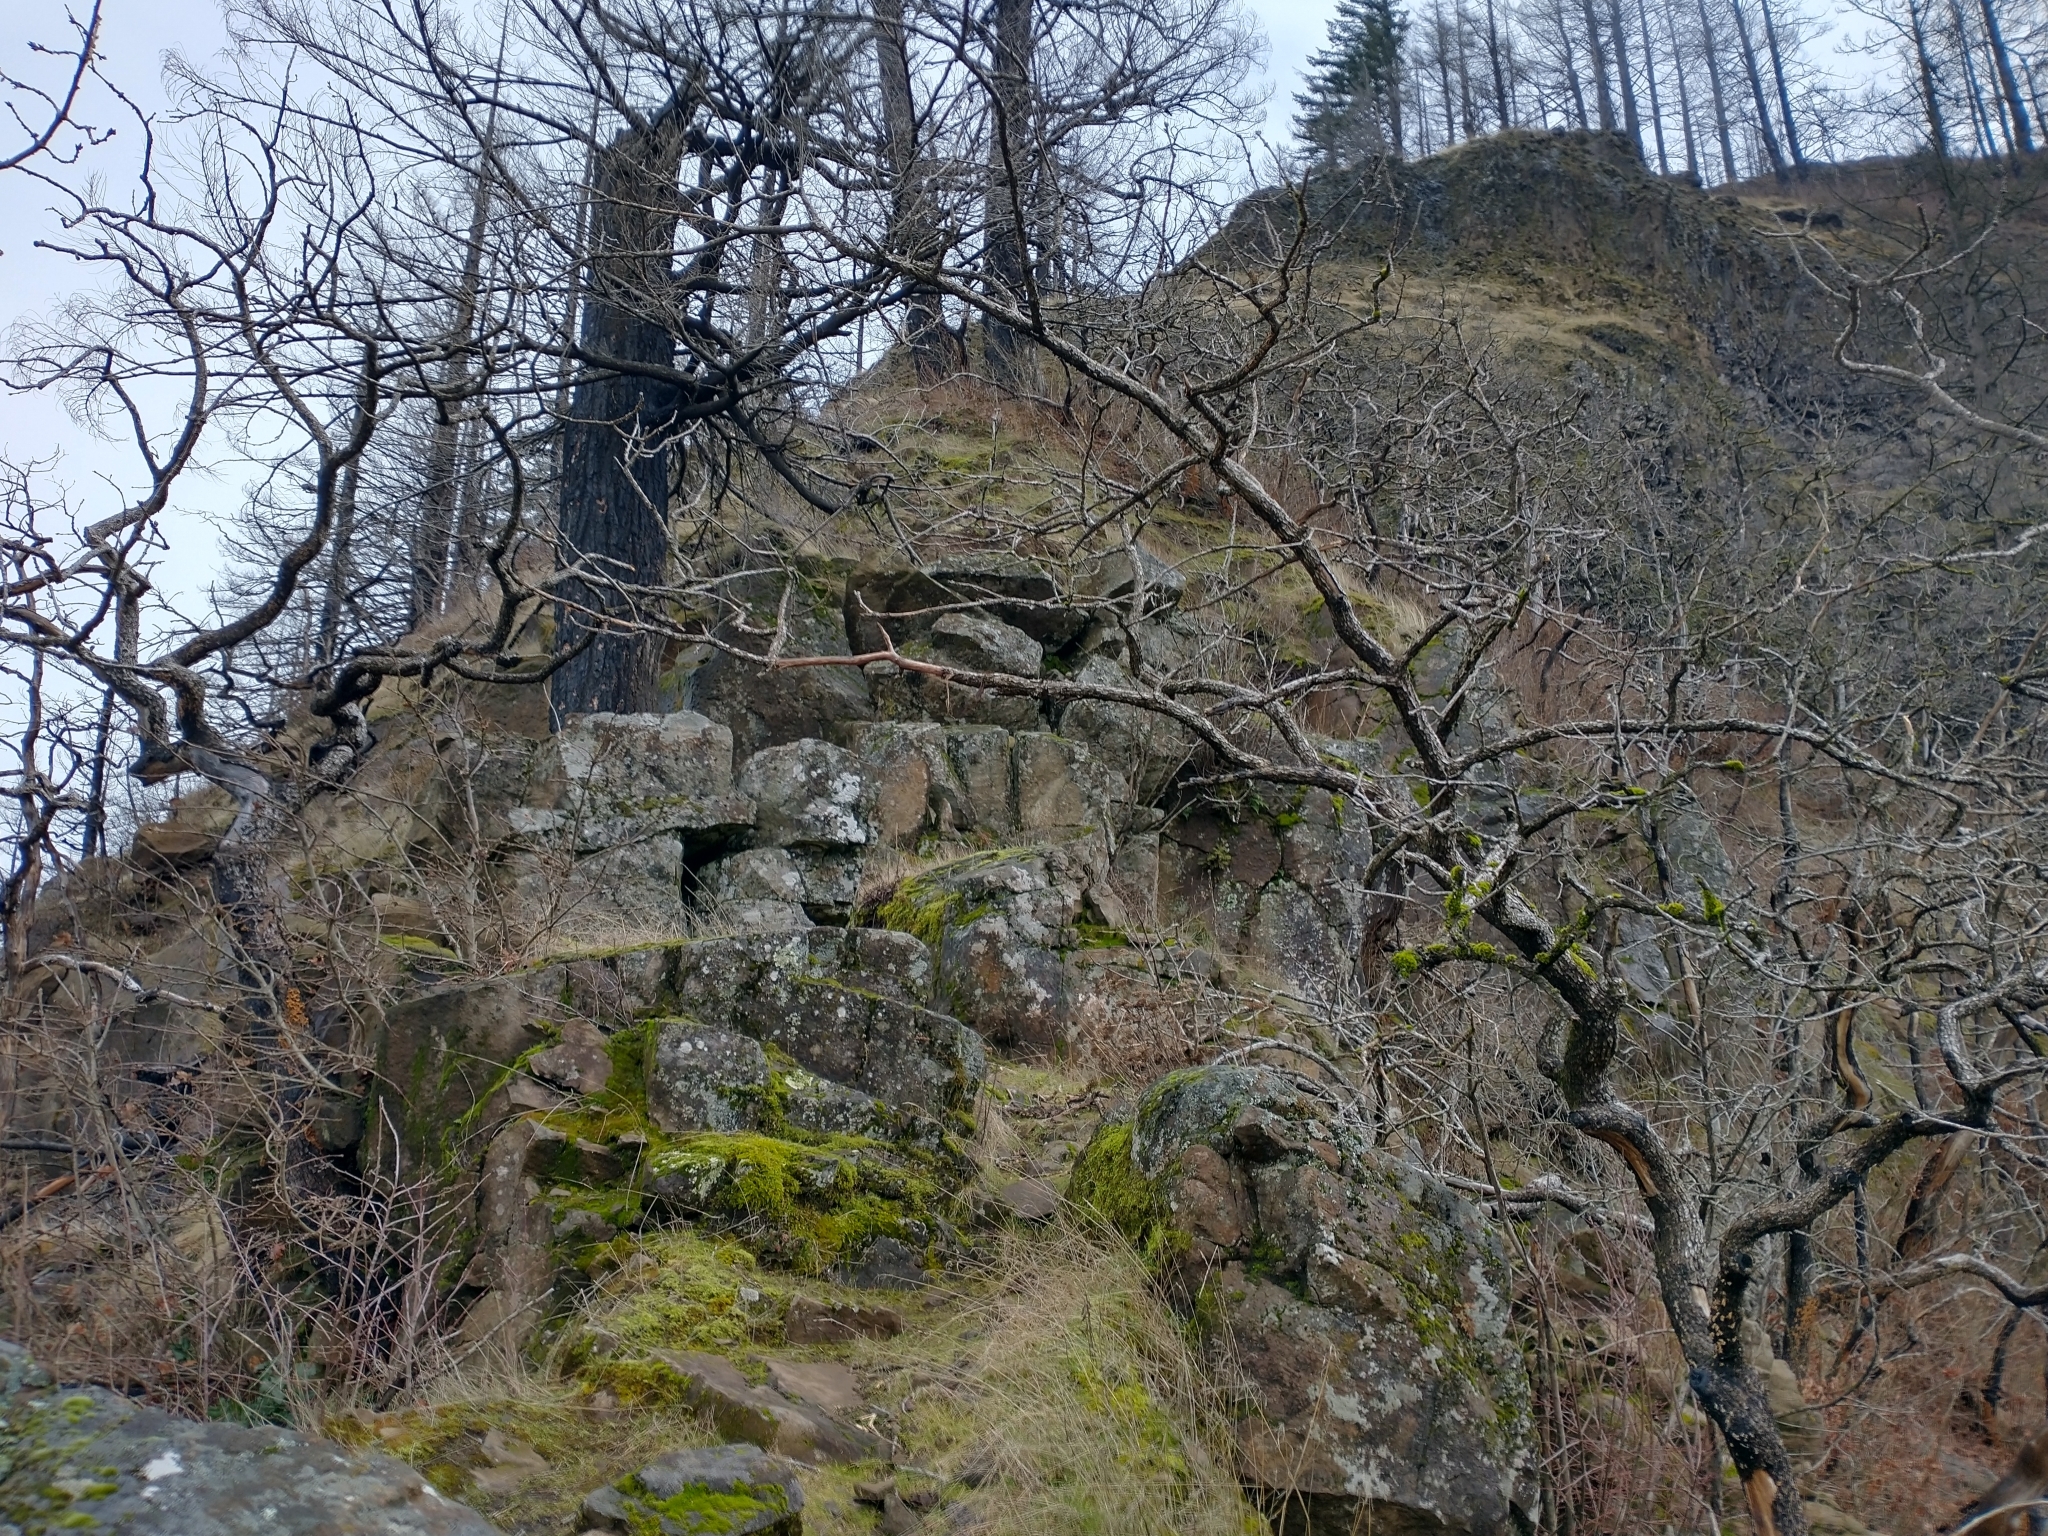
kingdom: Plantae
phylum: Tracheophyta
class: Magnoliopsida
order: Fagales
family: Fagaceae
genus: Quercus
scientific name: Quercus garryana
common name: Garry oak
